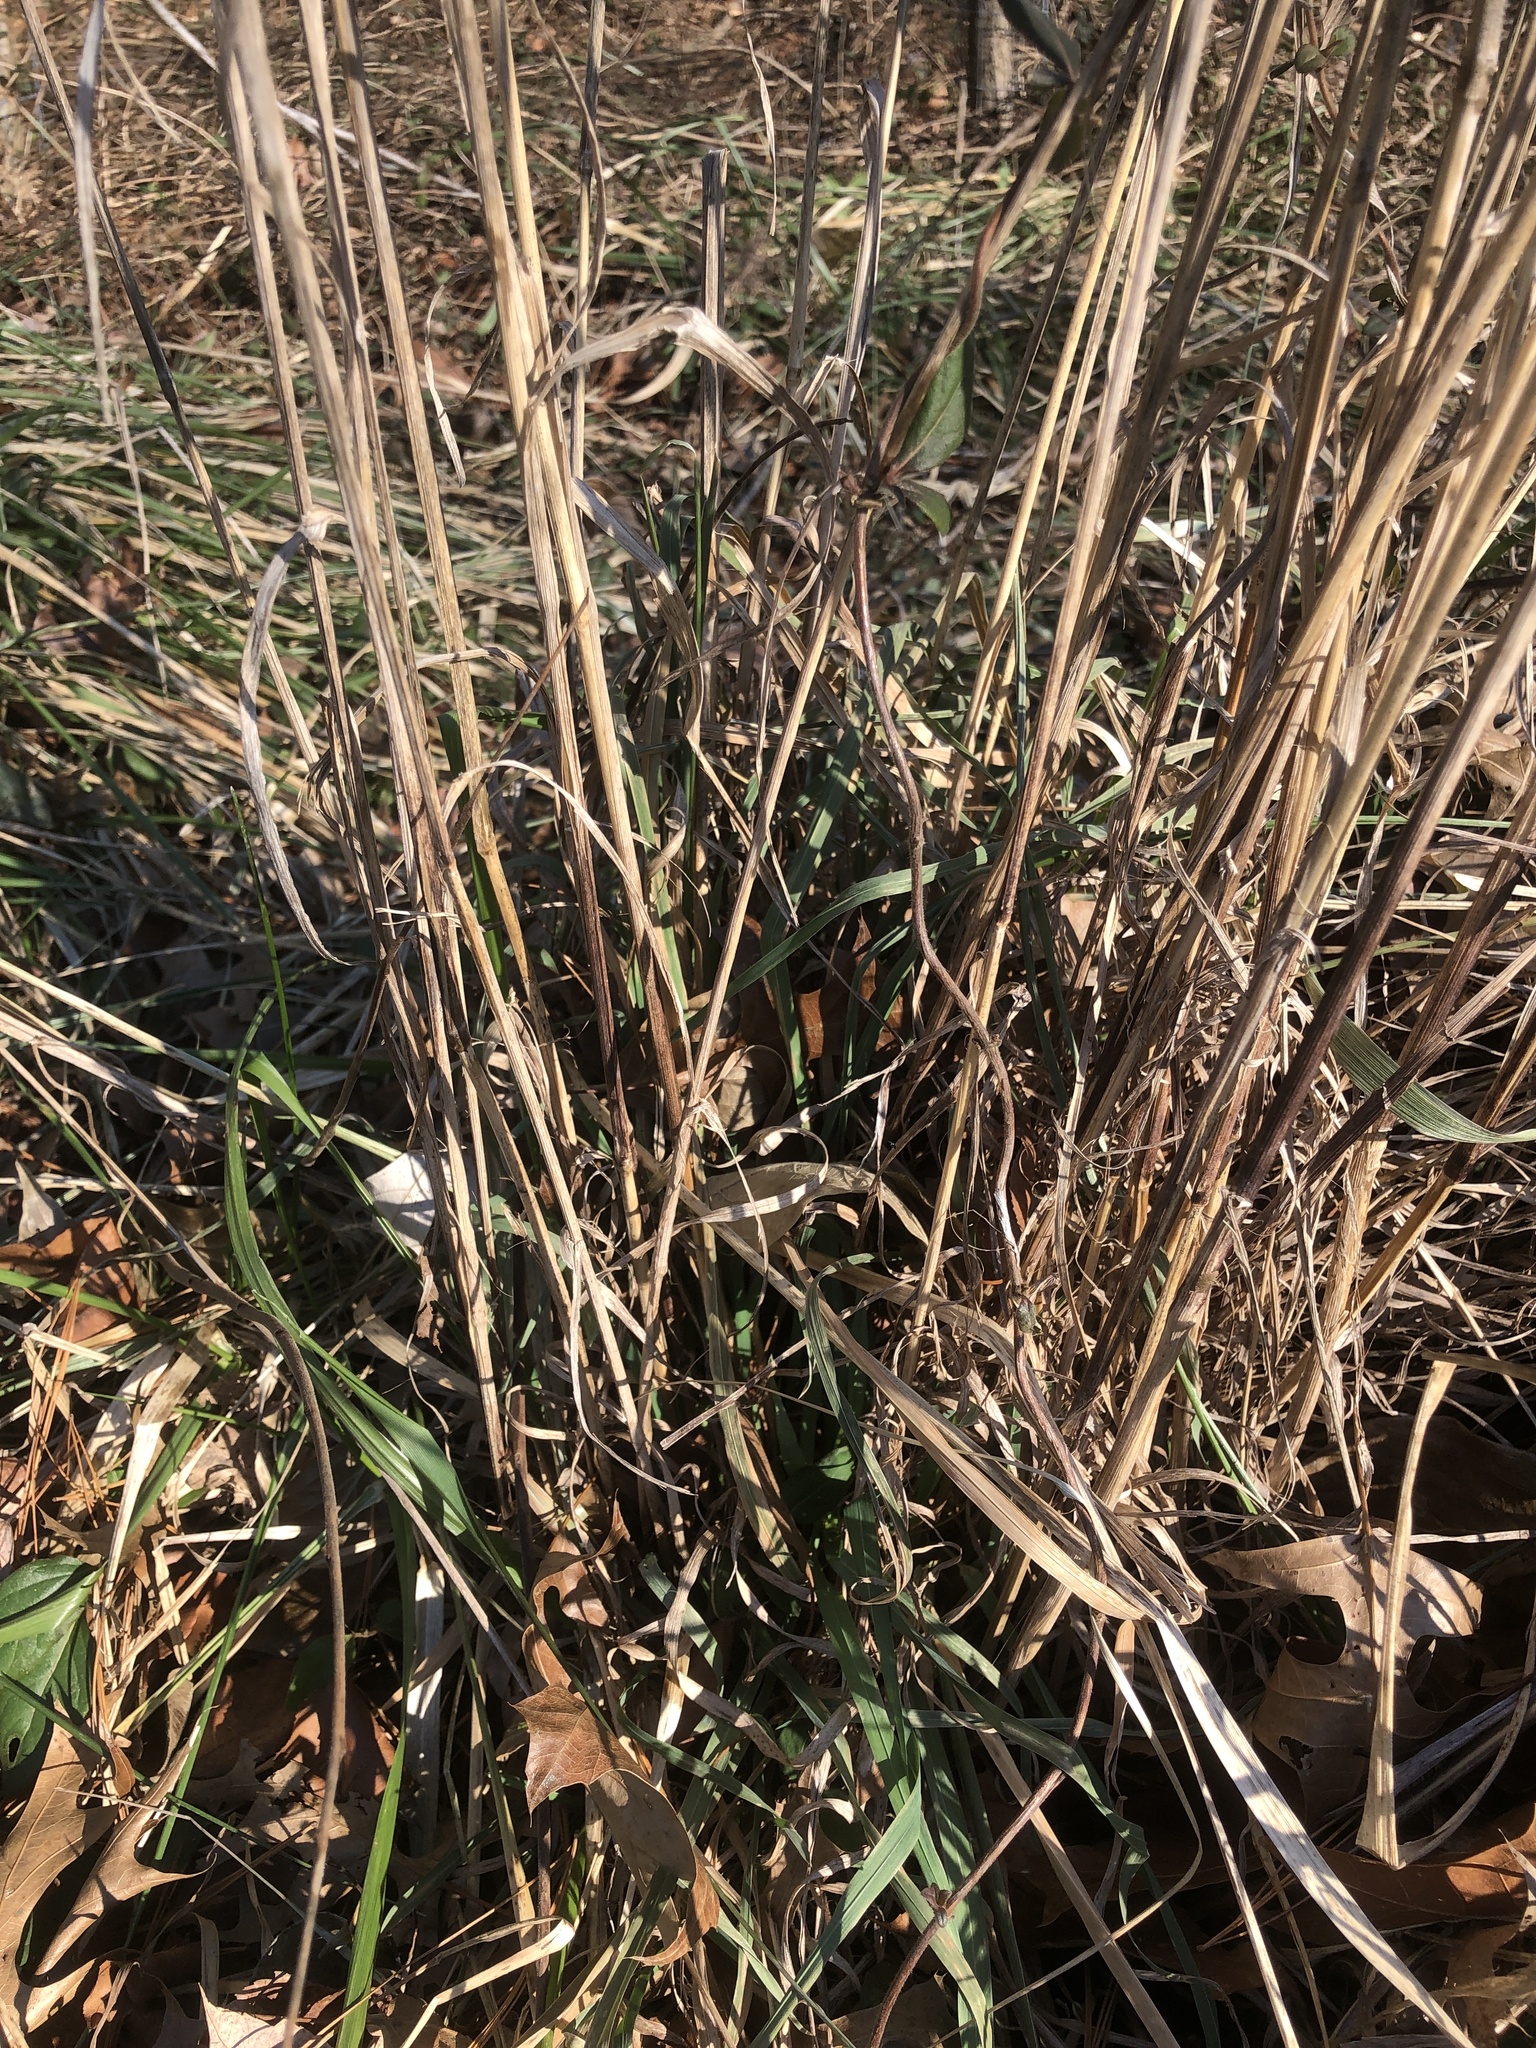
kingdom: Plantae
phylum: Tracheophyta
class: Liliopsida
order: Poales
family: Poaceae
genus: Dactylis
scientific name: Dactylis glomerata
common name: Orchardgrass
